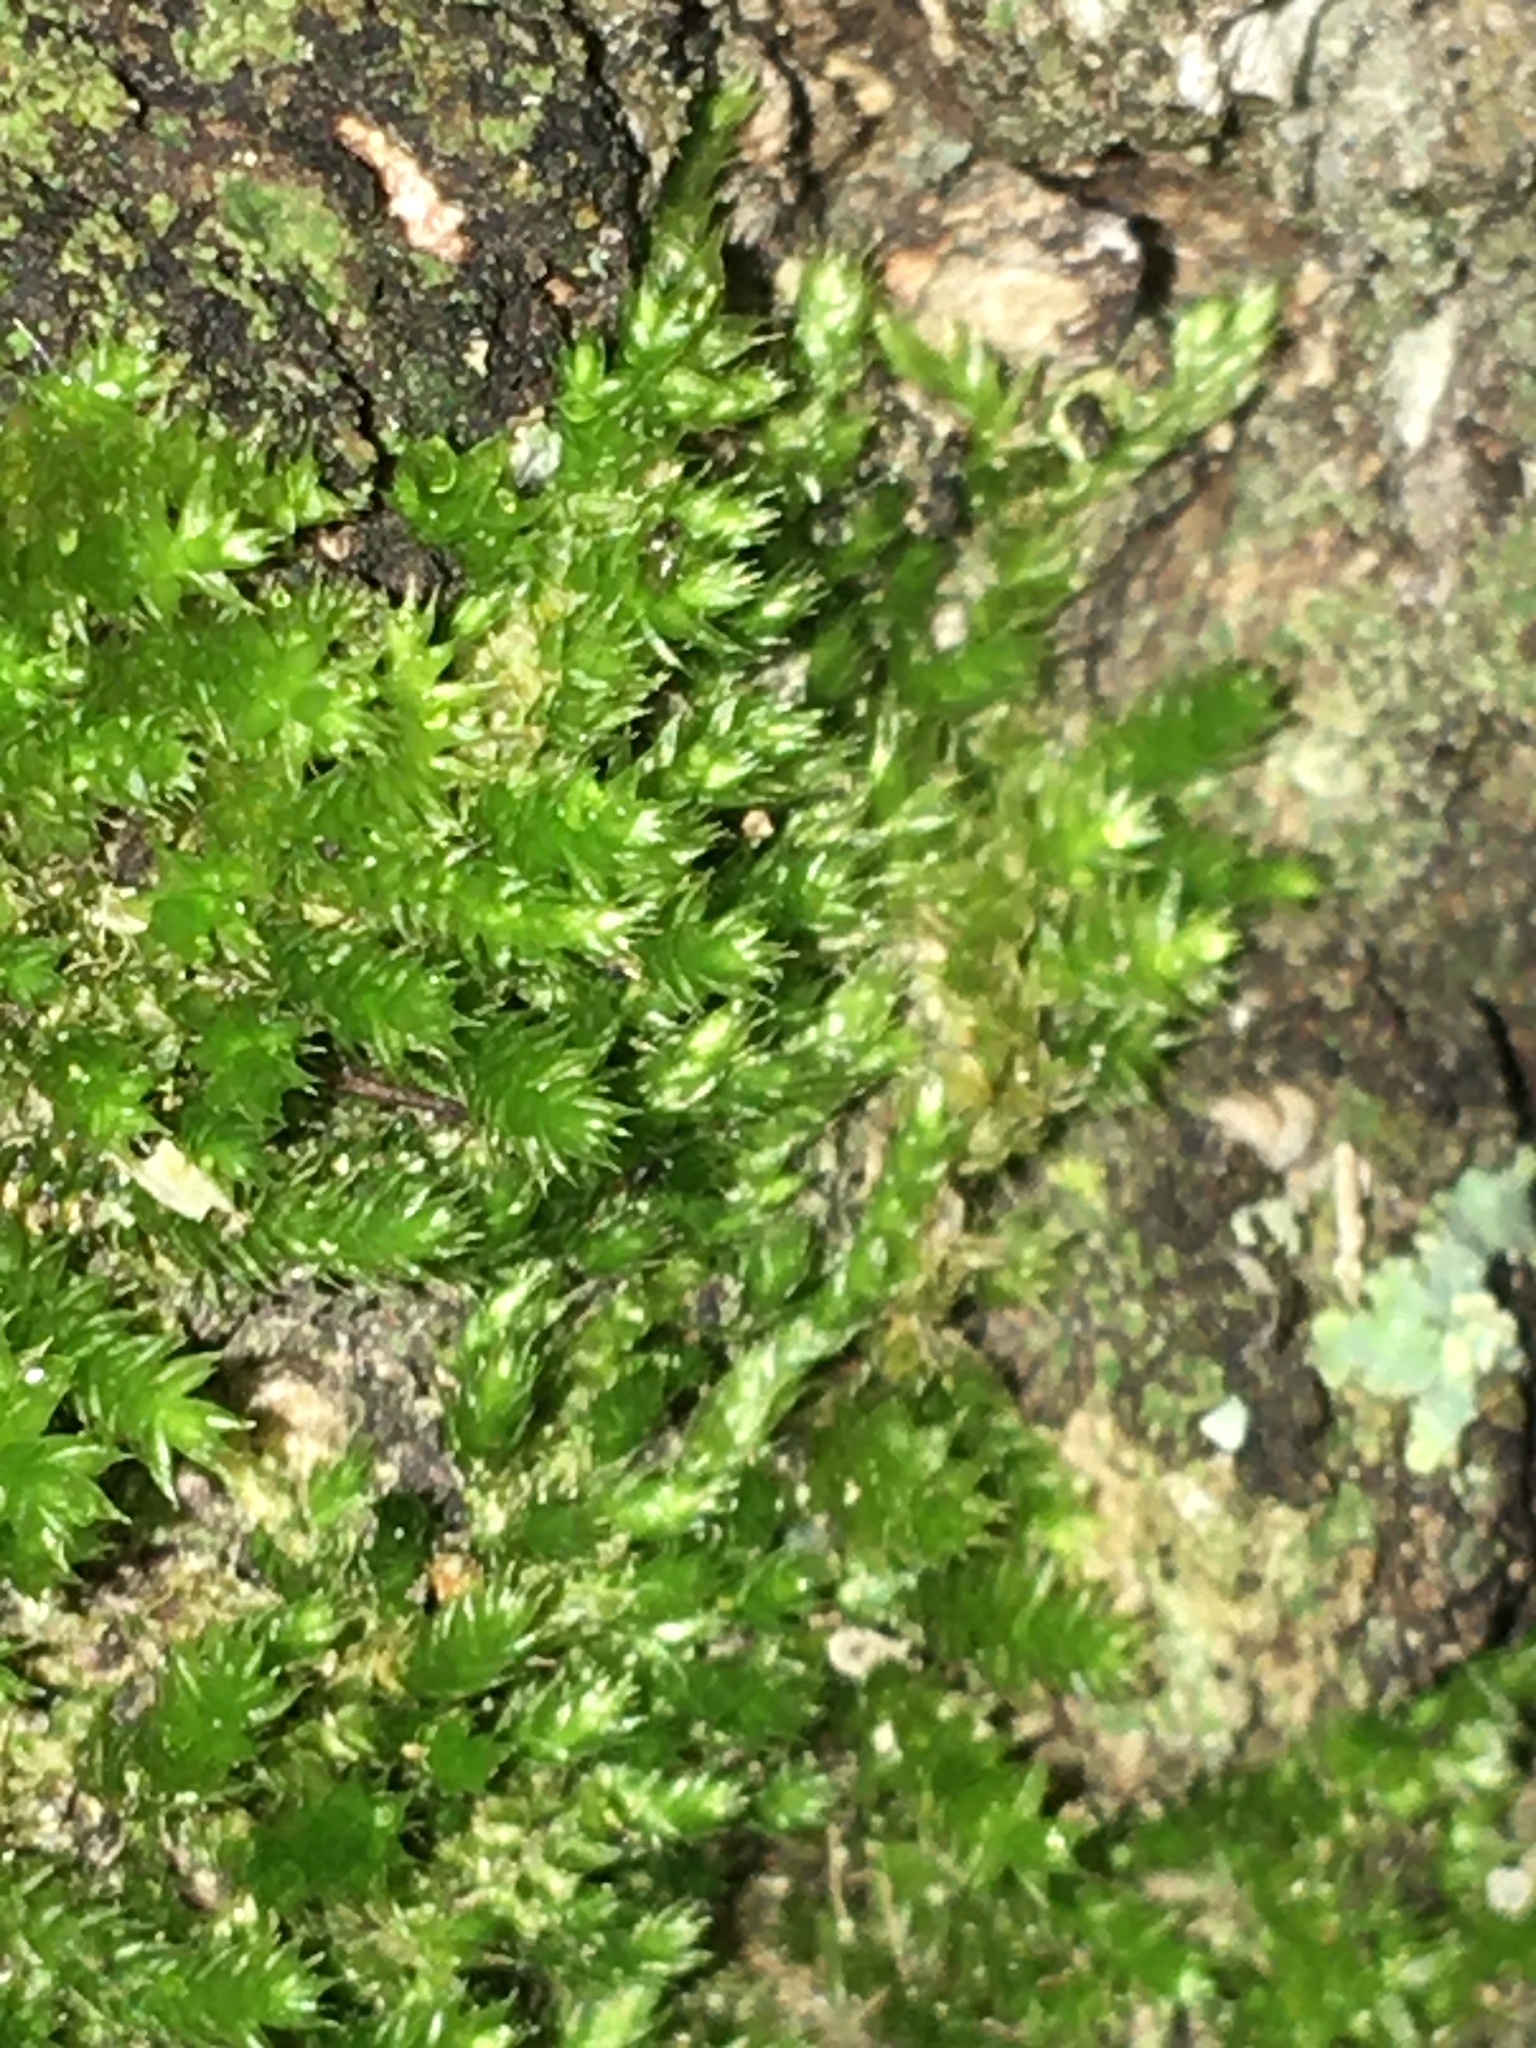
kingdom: Plantae
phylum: Bryophyta
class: Bryopsida
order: Hypnales
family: Pylaisiadelphaceae
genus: Platygyrium
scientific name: Platygyrium repens
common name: Flat-brocade moss
